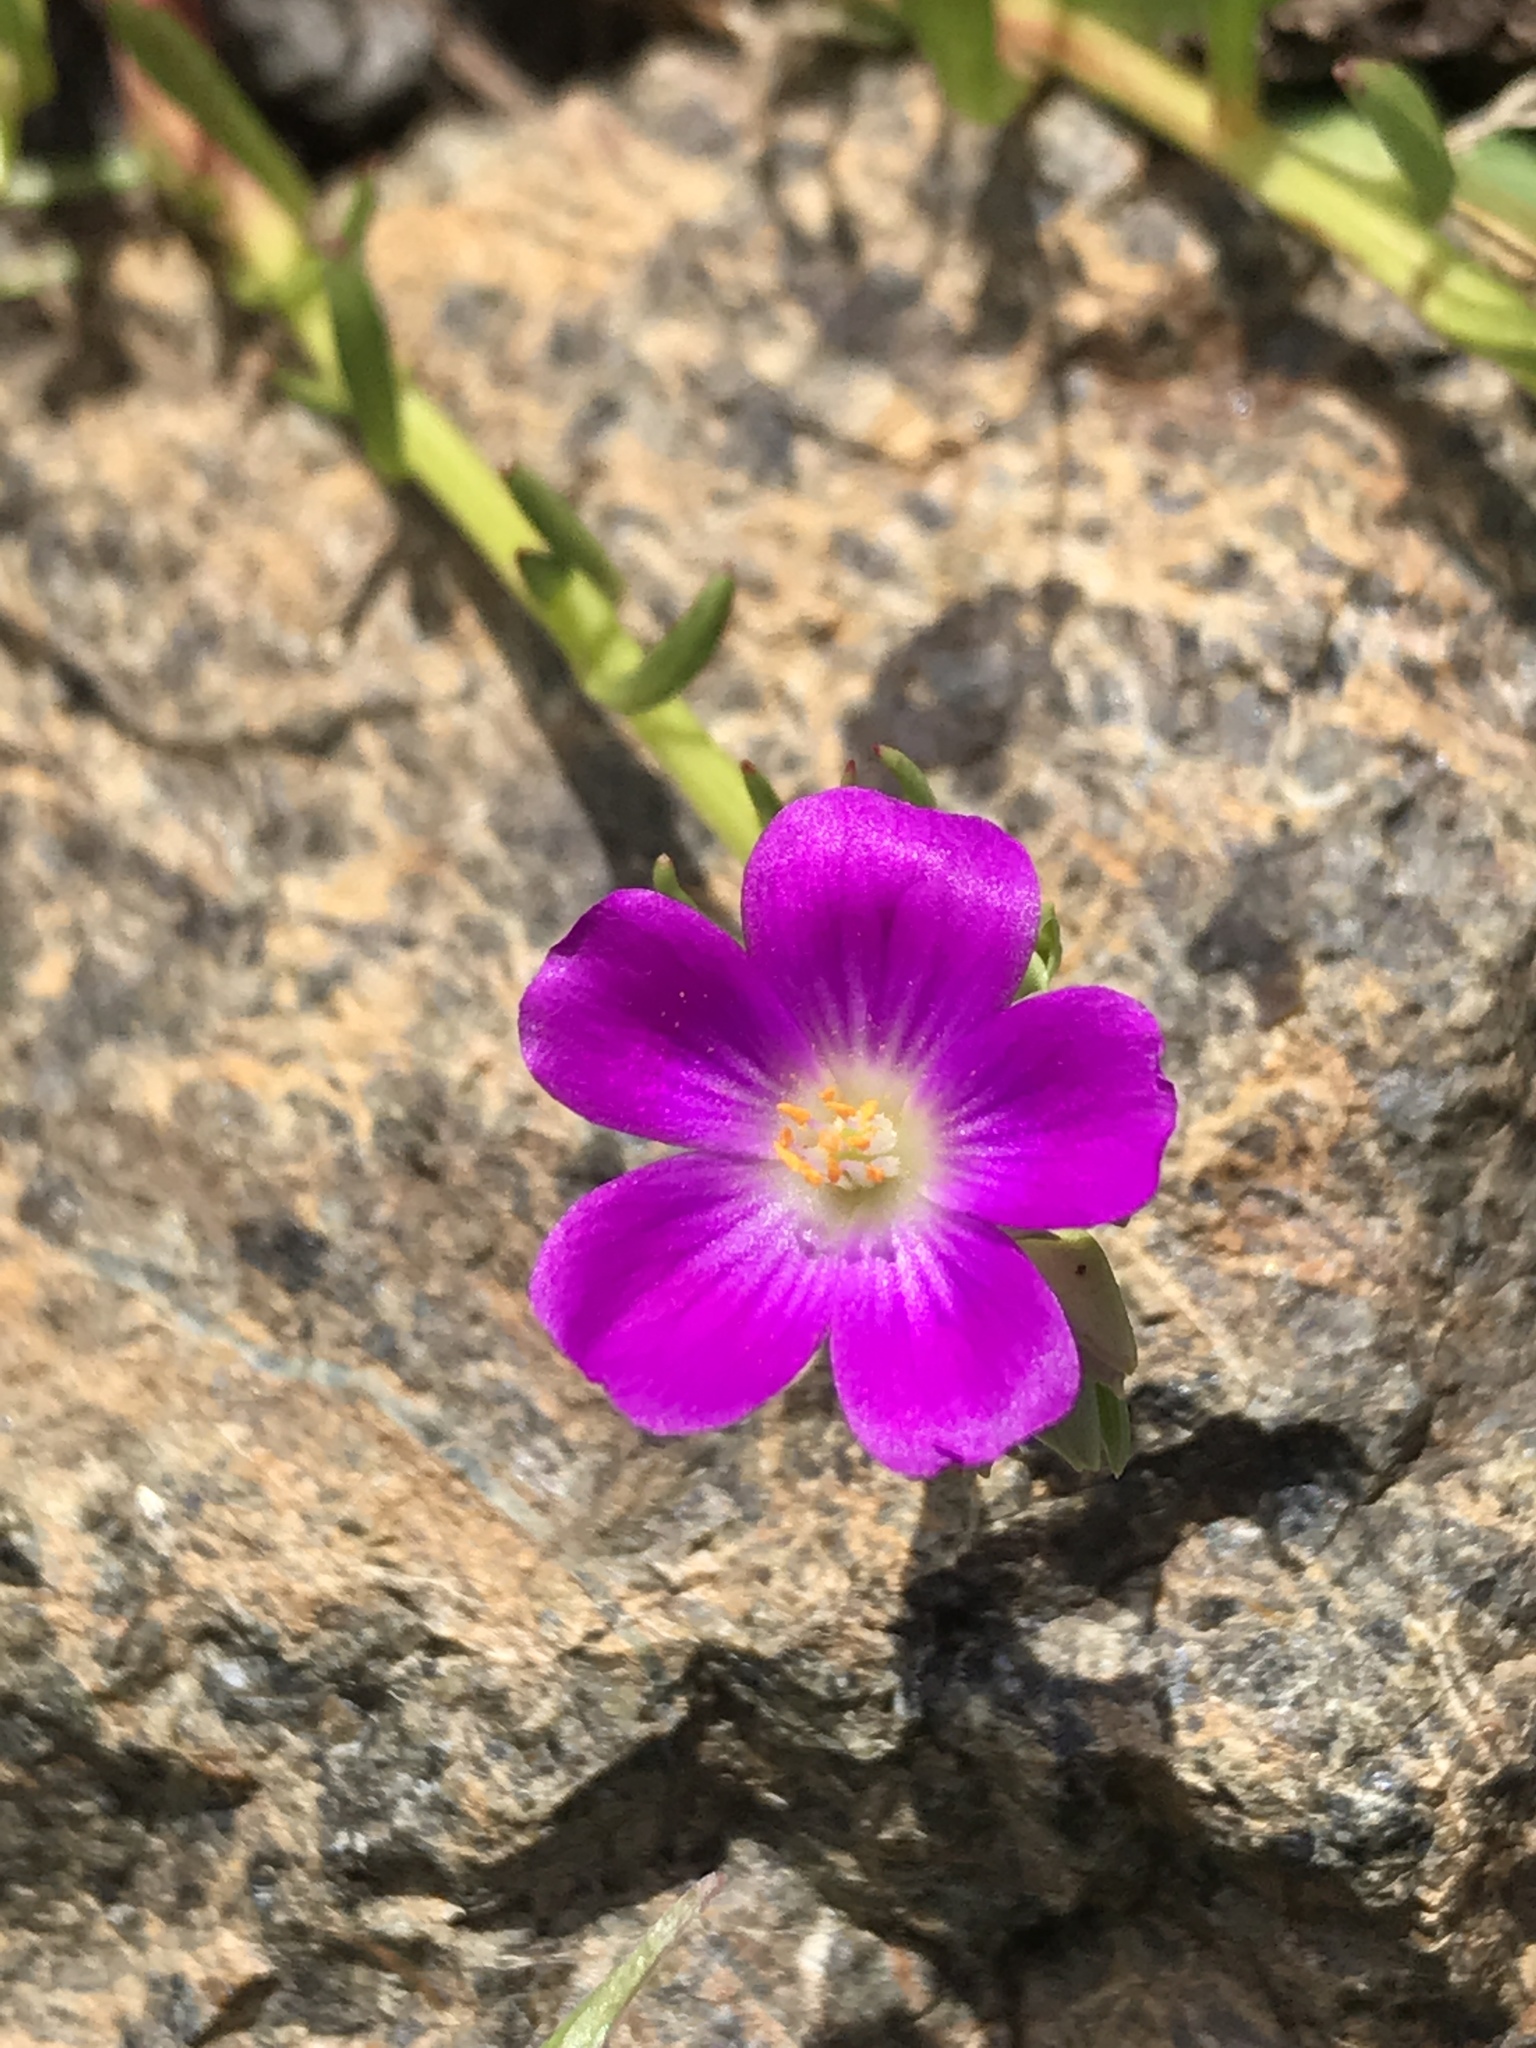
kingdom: Plantae
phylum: Tracheophyta
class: Magnoliopsida
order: Caryophyllales
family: Montiaceae
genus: Calandrinia
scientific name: Calandrinia menziesii
